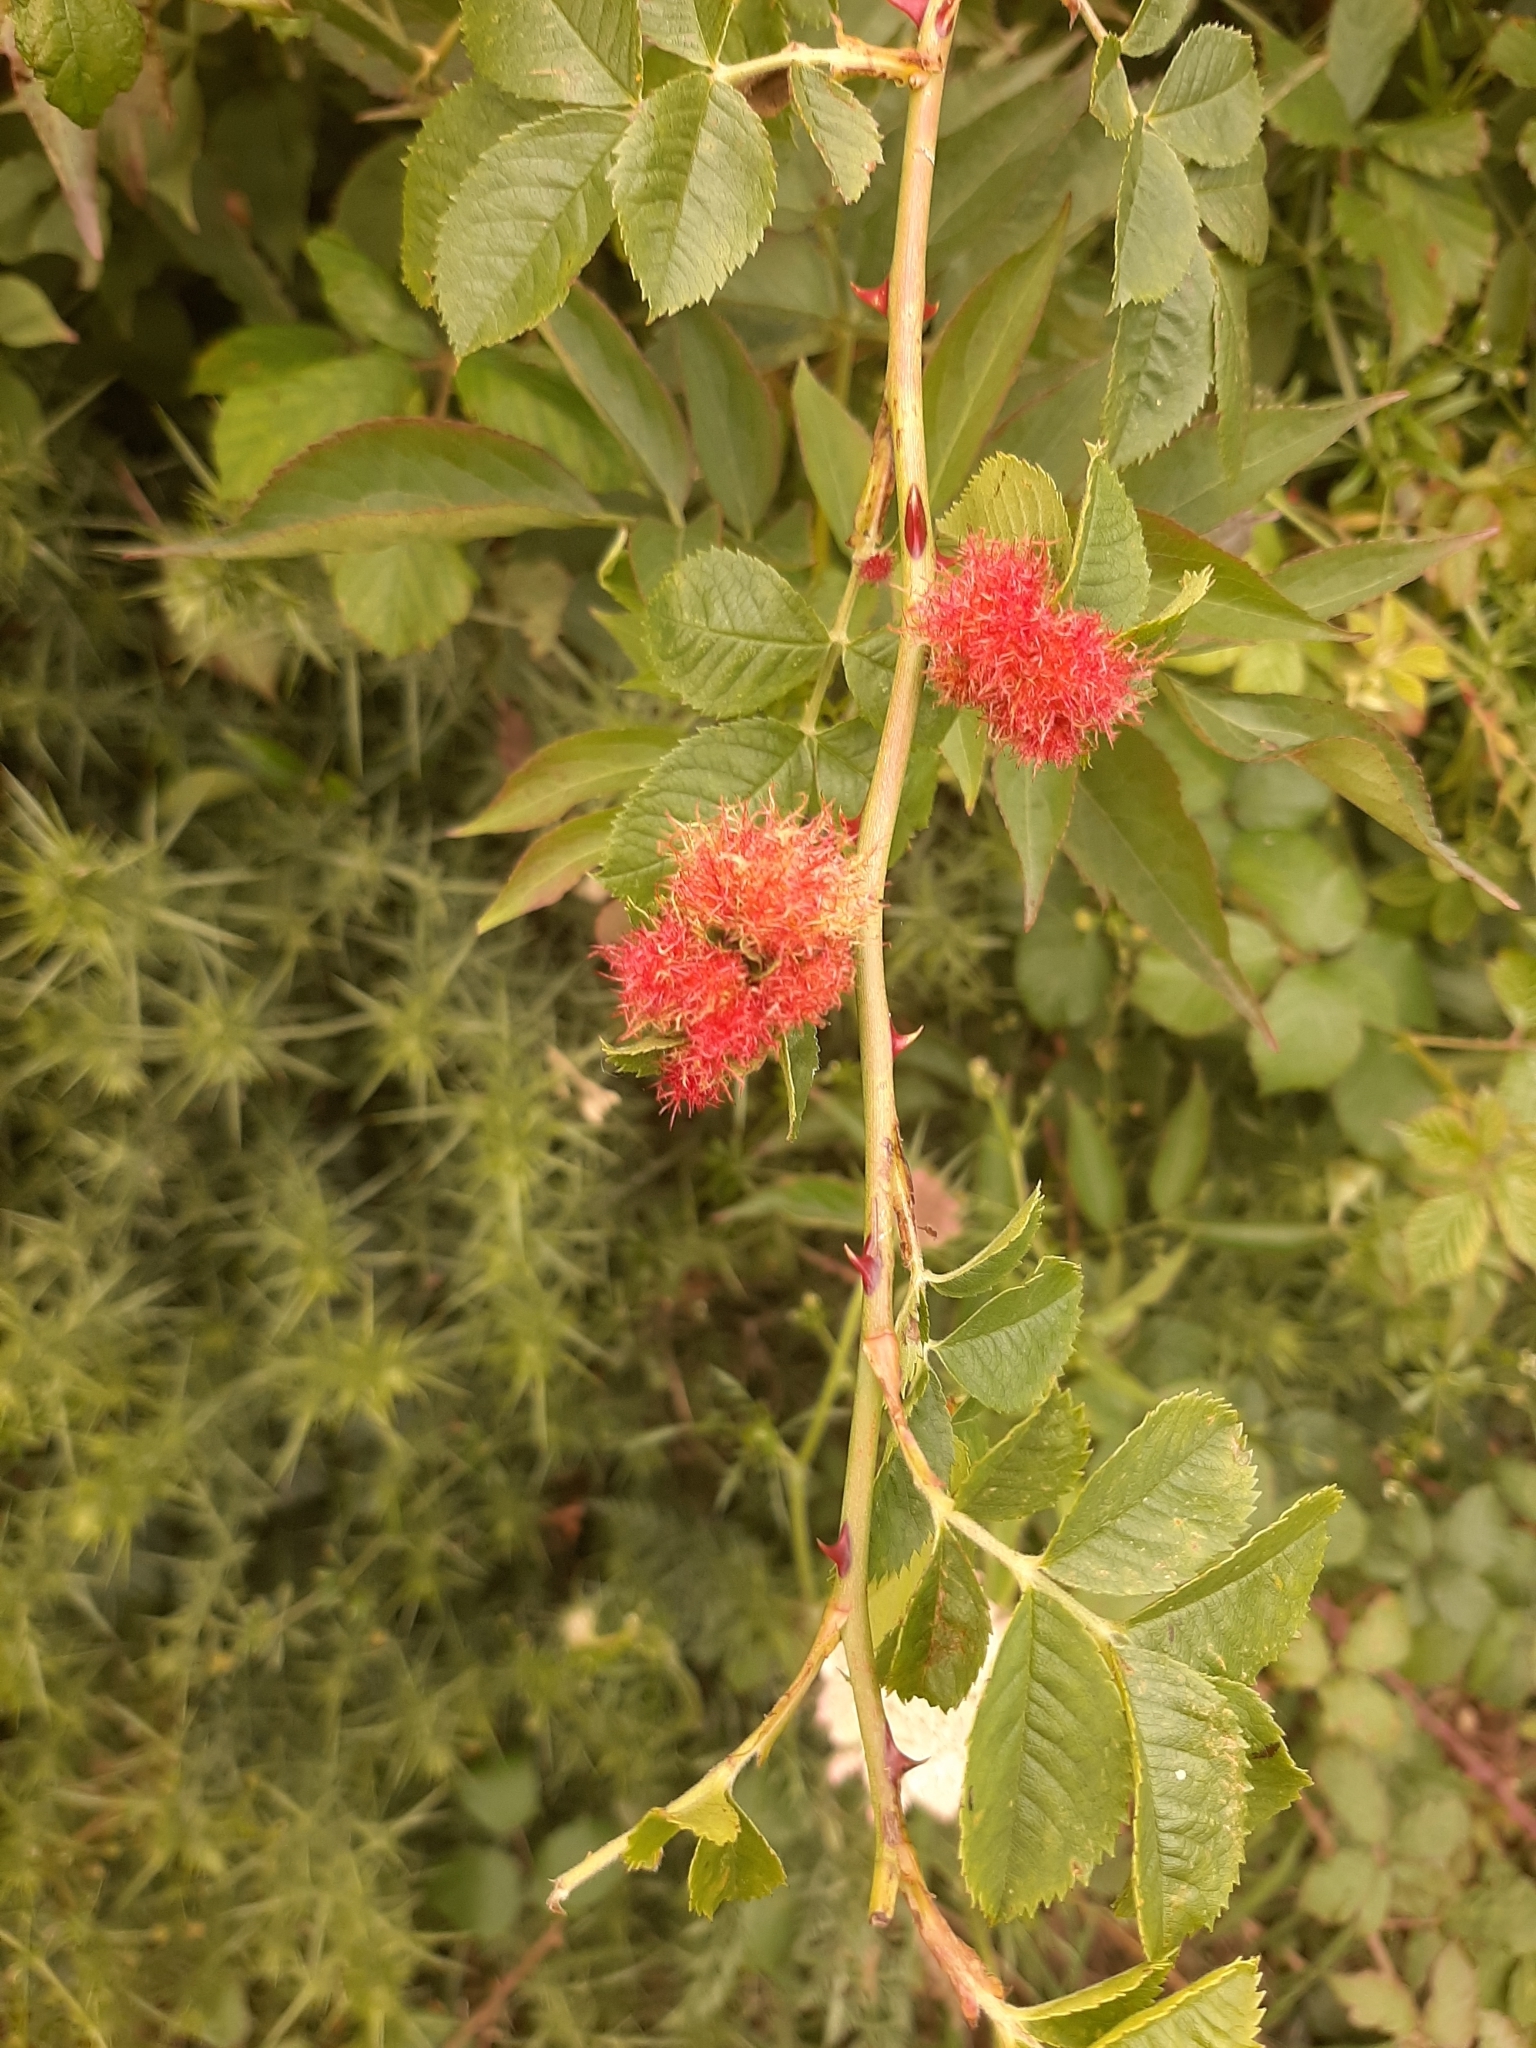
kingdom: Animalia
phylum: Arthropoda
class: Insecta
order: Hymenoptera
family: Cynipidae
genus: Diplolepis
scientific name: Diplolepis rosae
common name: Bedeguar gall
